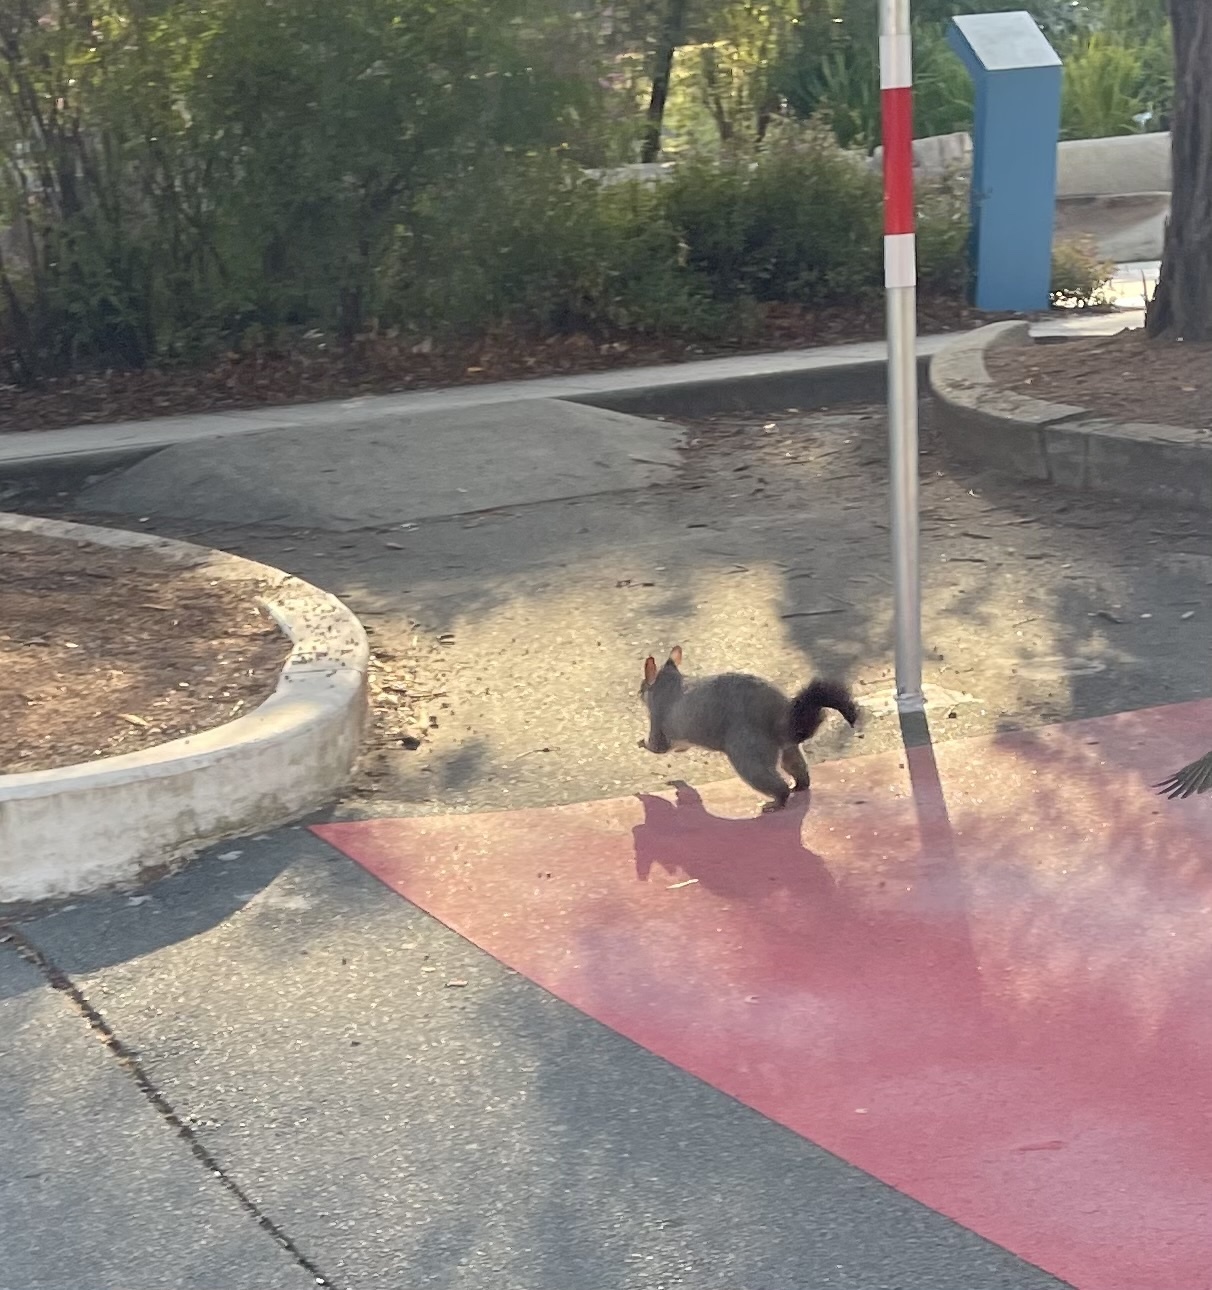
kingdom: Animalia
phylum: Chordata
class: Mammalia
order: Diprotodontia
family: Phalangeridae
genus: Trichosurus
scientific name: Trichosurus vulpecula
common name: Common brushtail
